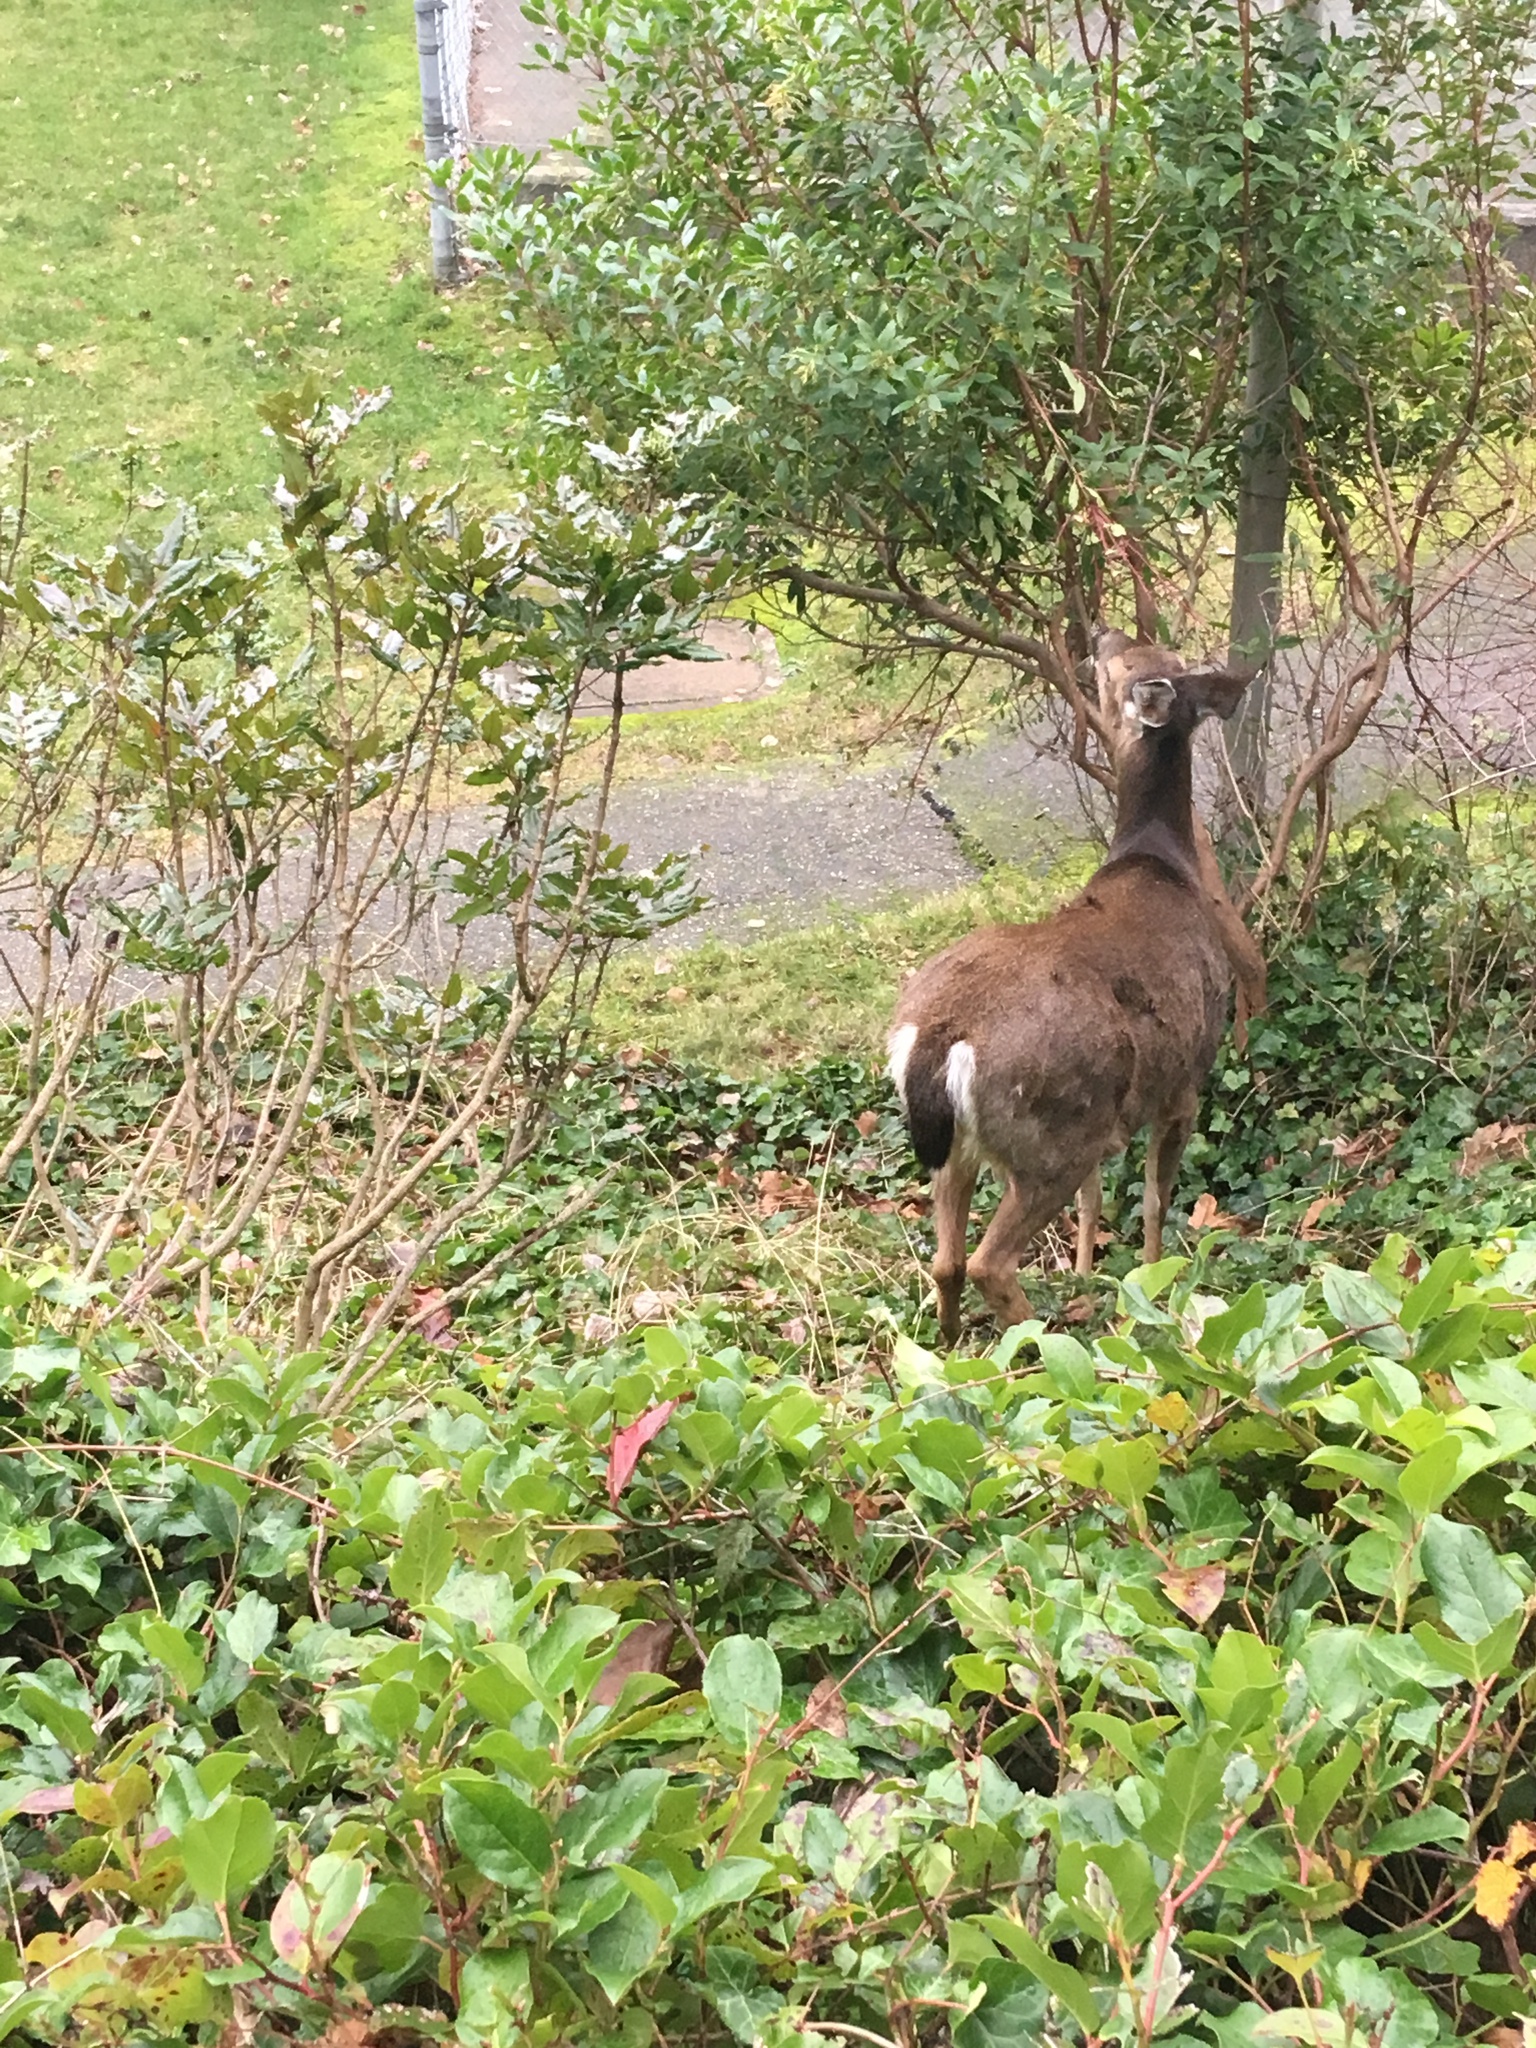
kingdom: Animalia
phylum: Chordata
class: Mammalia
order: Artiodactyla
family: Cervidae
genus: Odocoileus
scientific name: Odocoileus hemionus
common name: Mule deer
